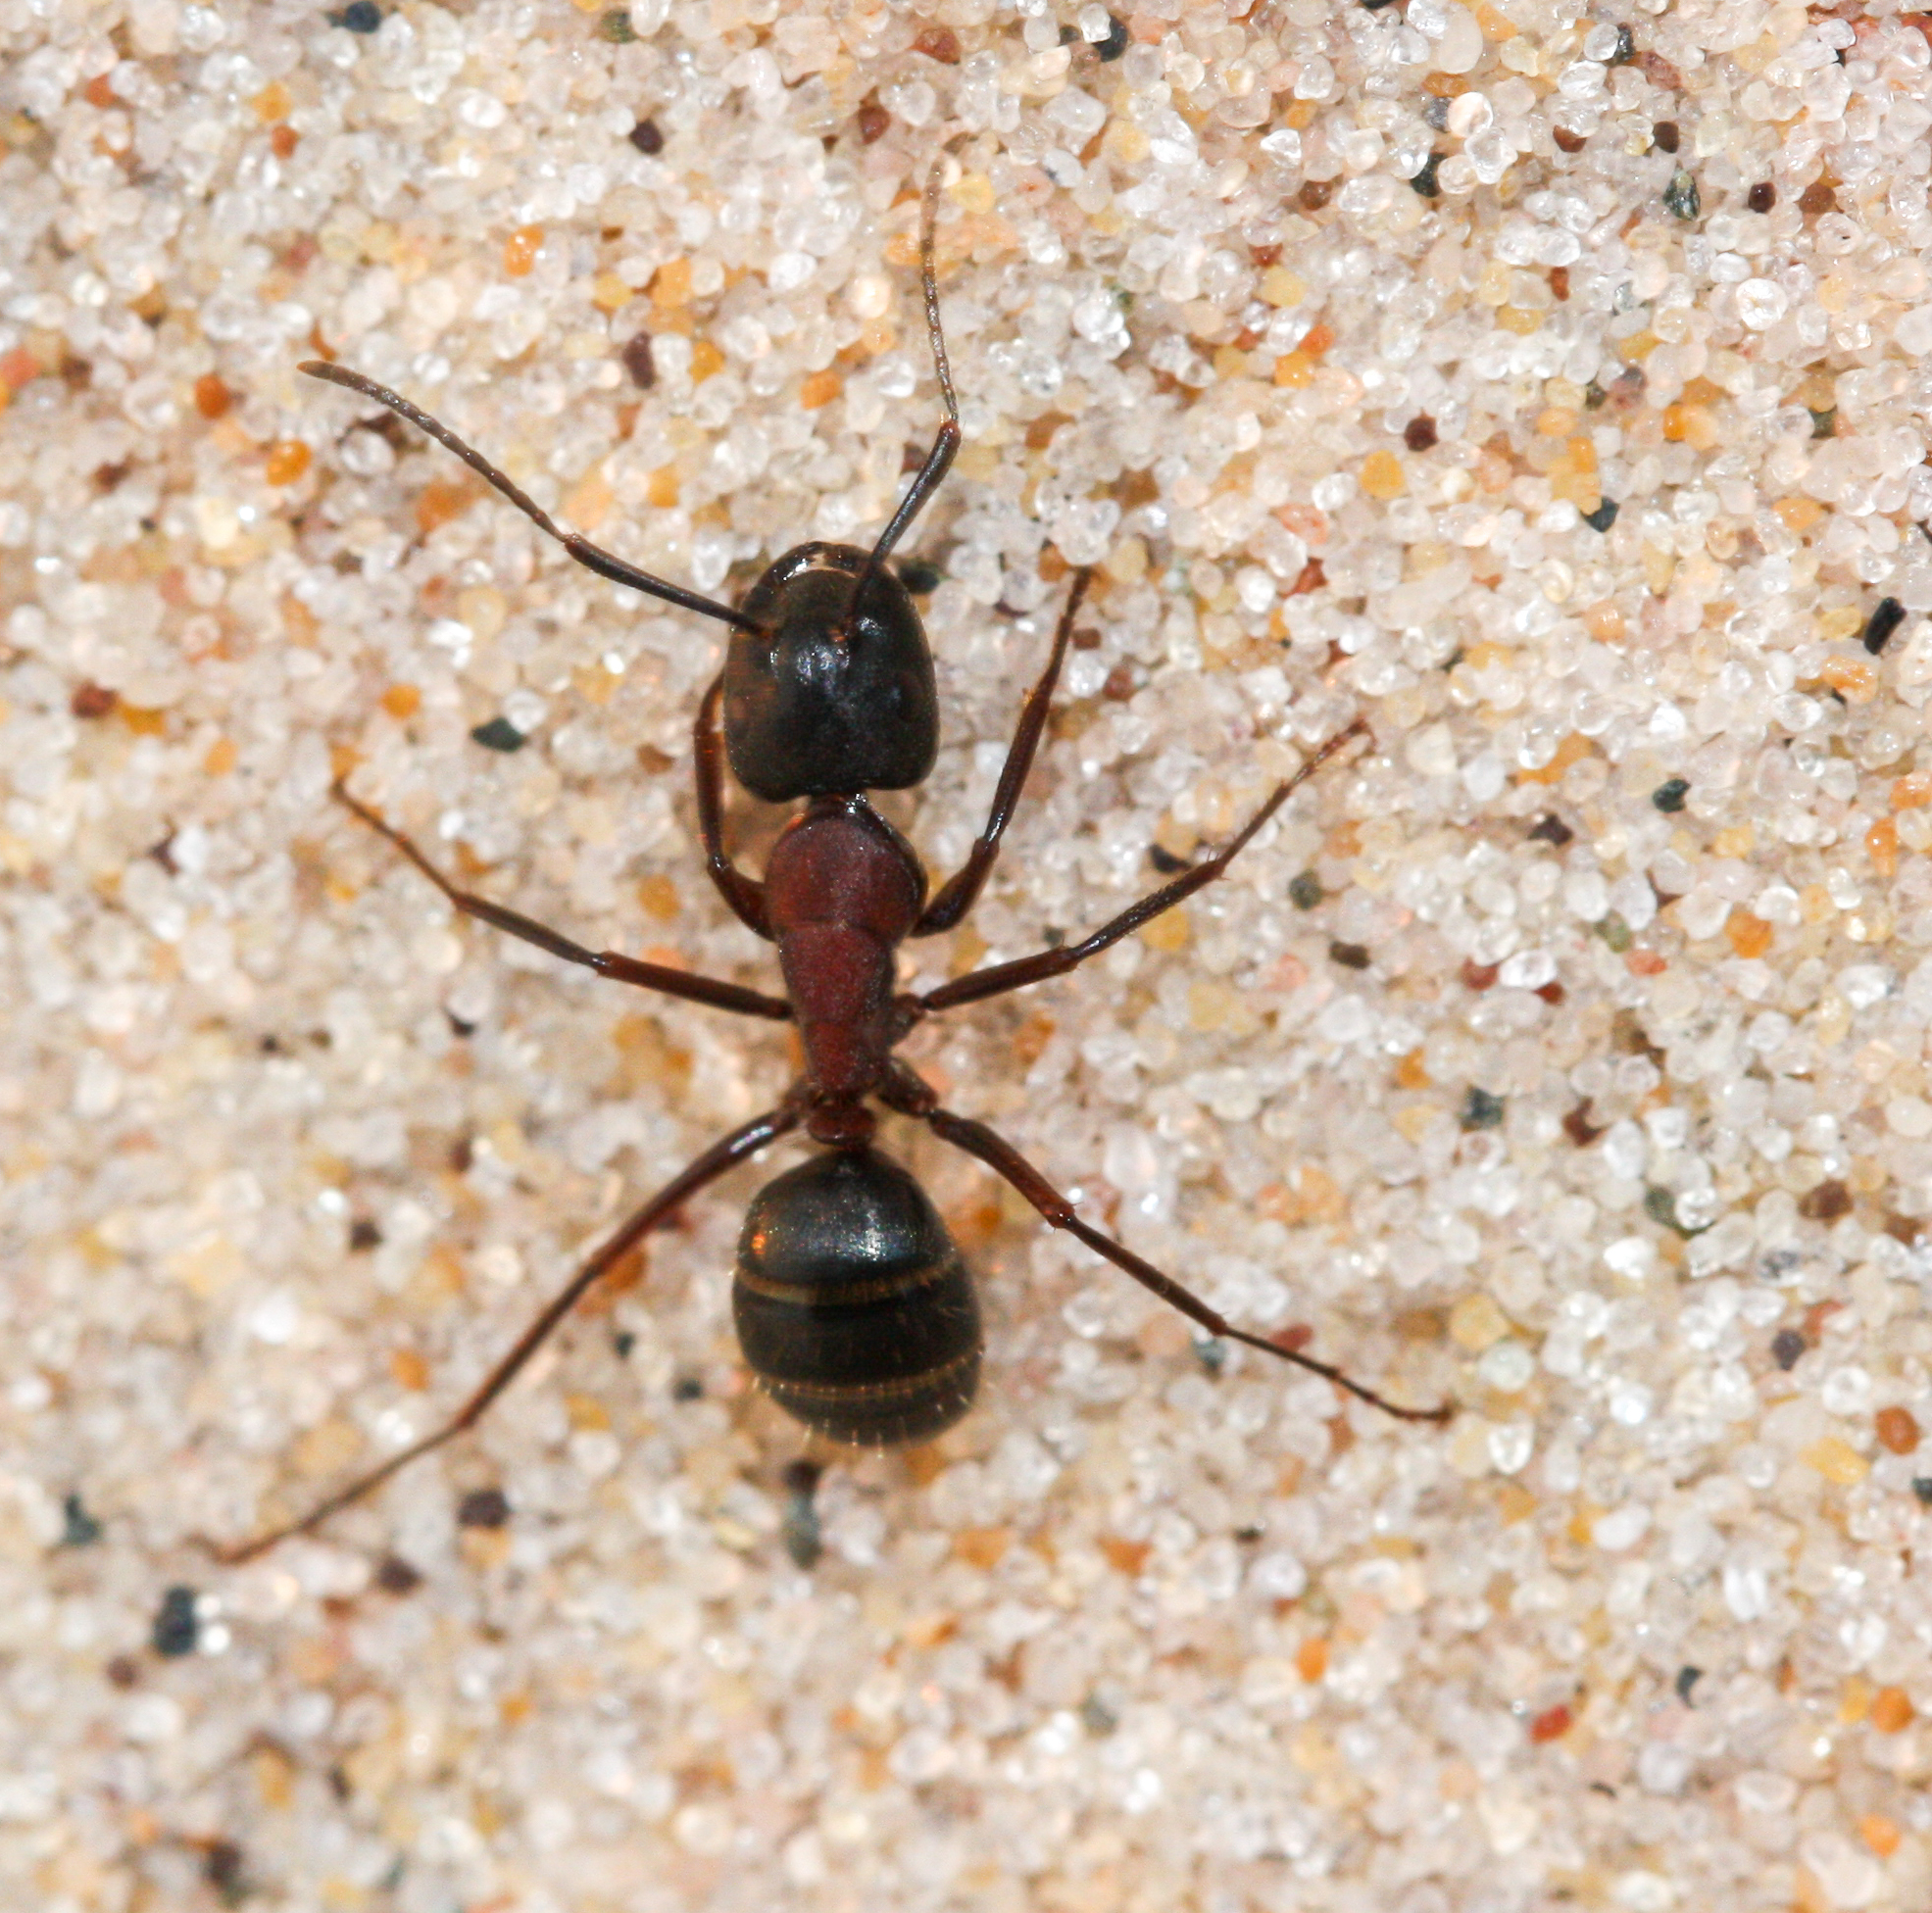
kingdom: Animalia
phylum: Arthropoda
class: Insecta
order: Hymenoptera
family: Formicidae
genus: Camponotus
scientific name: Camponotus novaeboracensis
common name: New york carpenter ant
